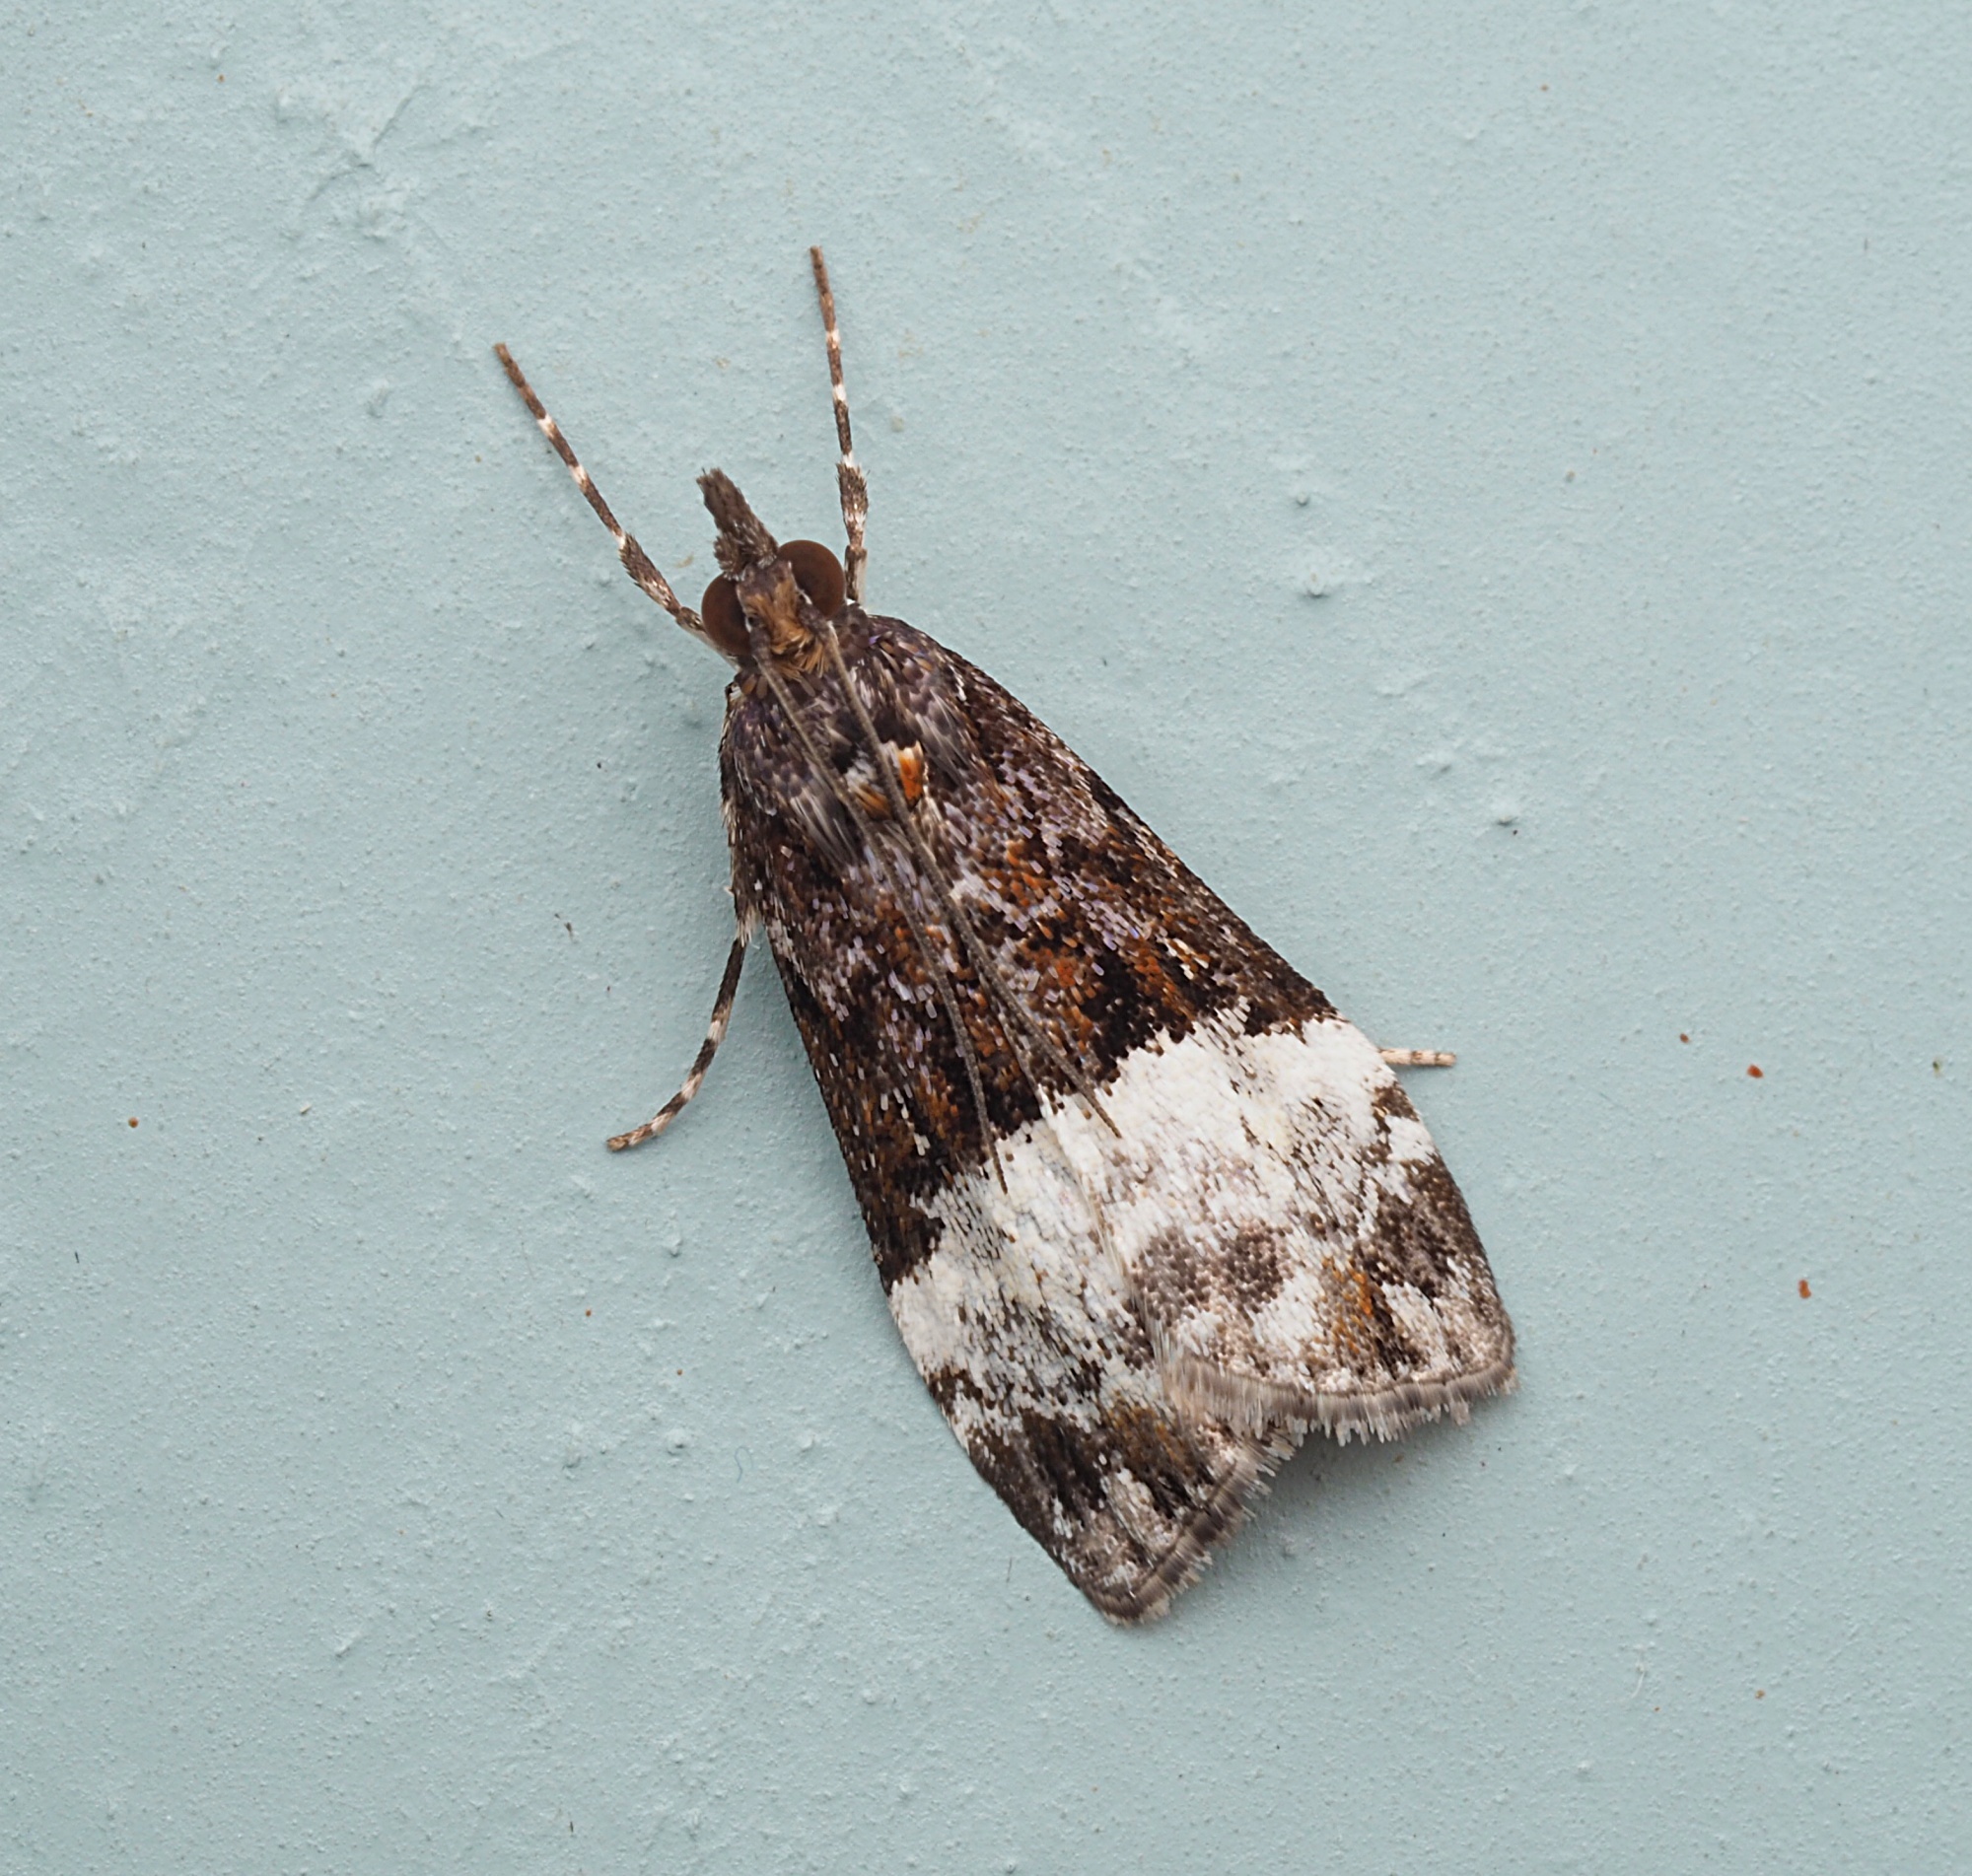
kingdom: Animalia
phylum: Arthropoda
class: Insecta
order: Lepidoptera
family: Crambidae
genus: Scoparia
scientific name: Scoparia minusculalis
